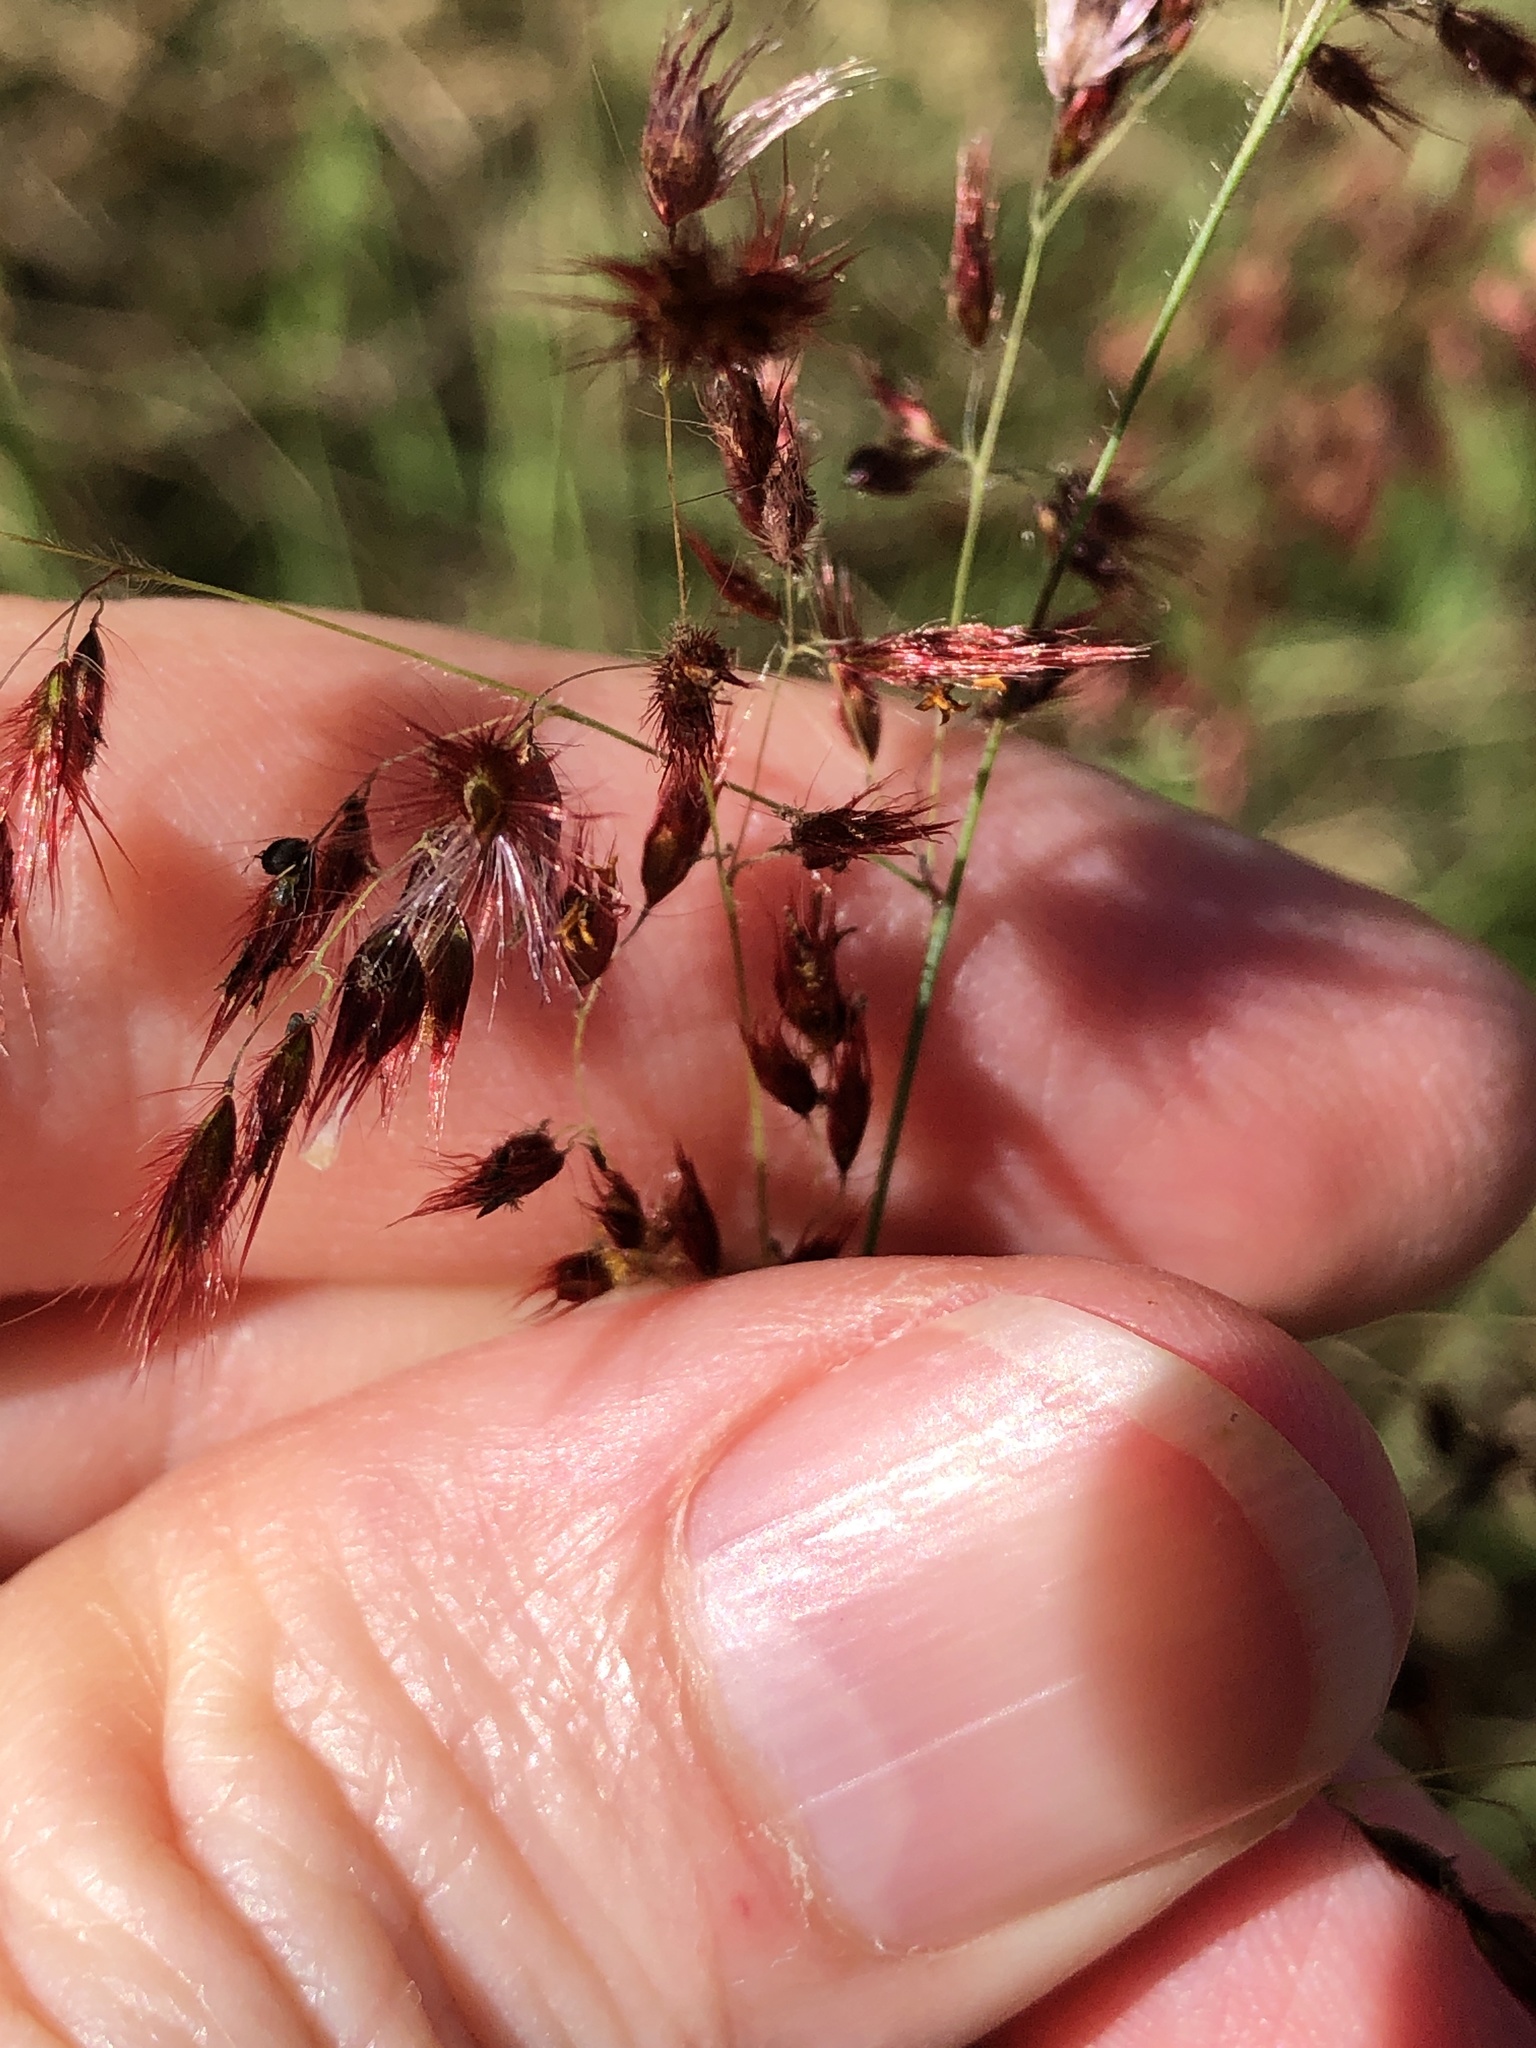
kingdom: Plantae
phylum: Tracheophyta
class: Liliopsida
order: Poales
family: Poaceae
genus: Melinis
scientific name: Melinis repens
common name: Rose natal grass
